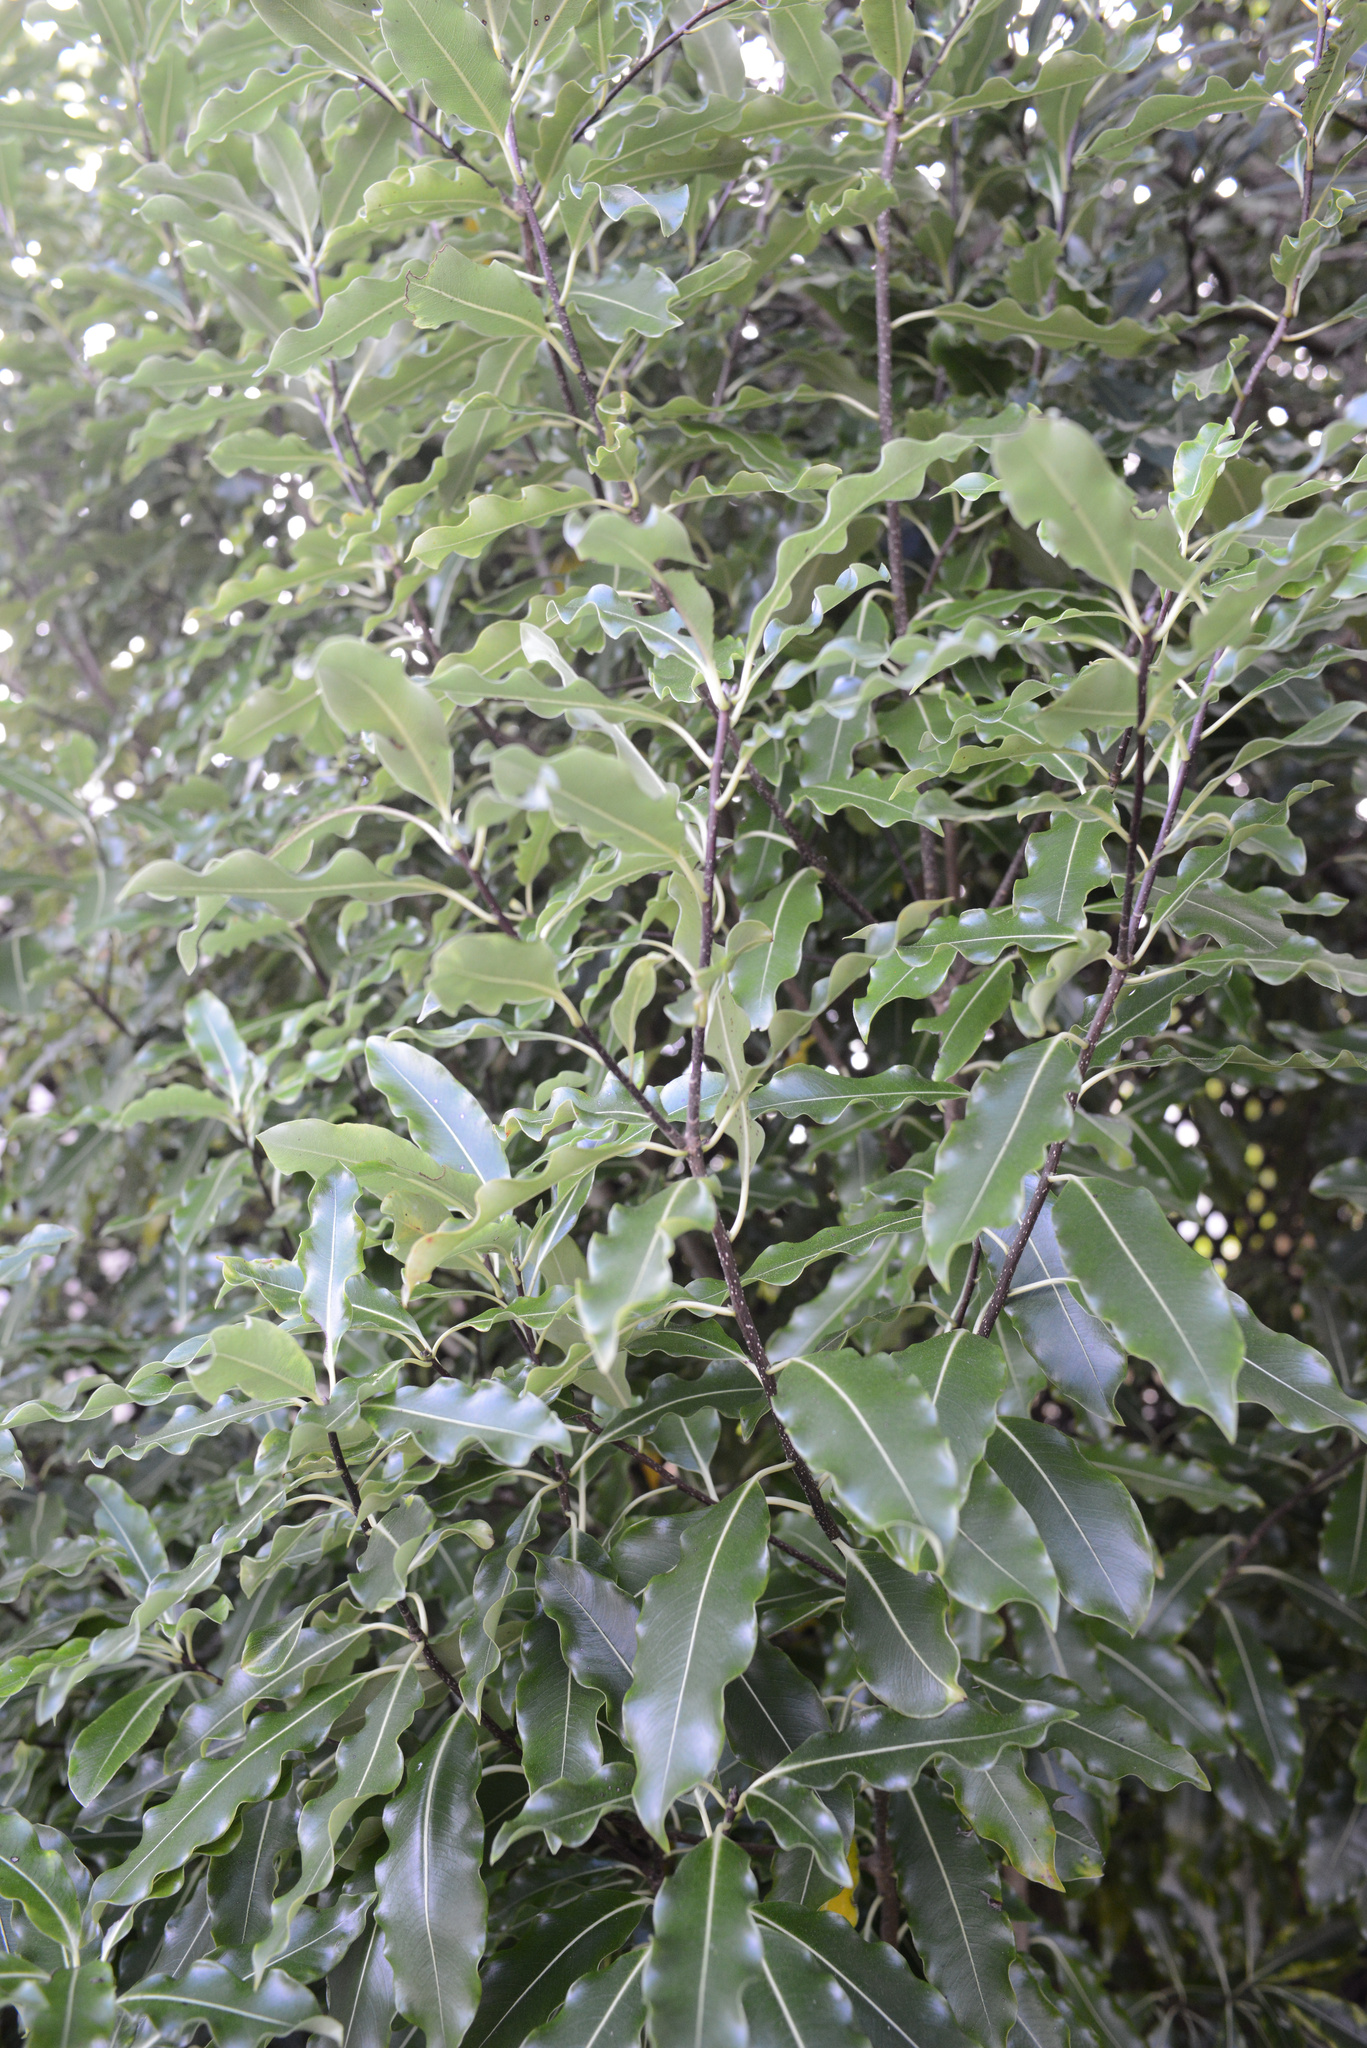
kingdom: Plantae
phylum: Tracheophyta
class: Magnoliopsida
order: Apiales
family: Pittosporaceae
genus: Pittosporum
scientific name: Pittosporum eugenioides
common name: Lemonwood
